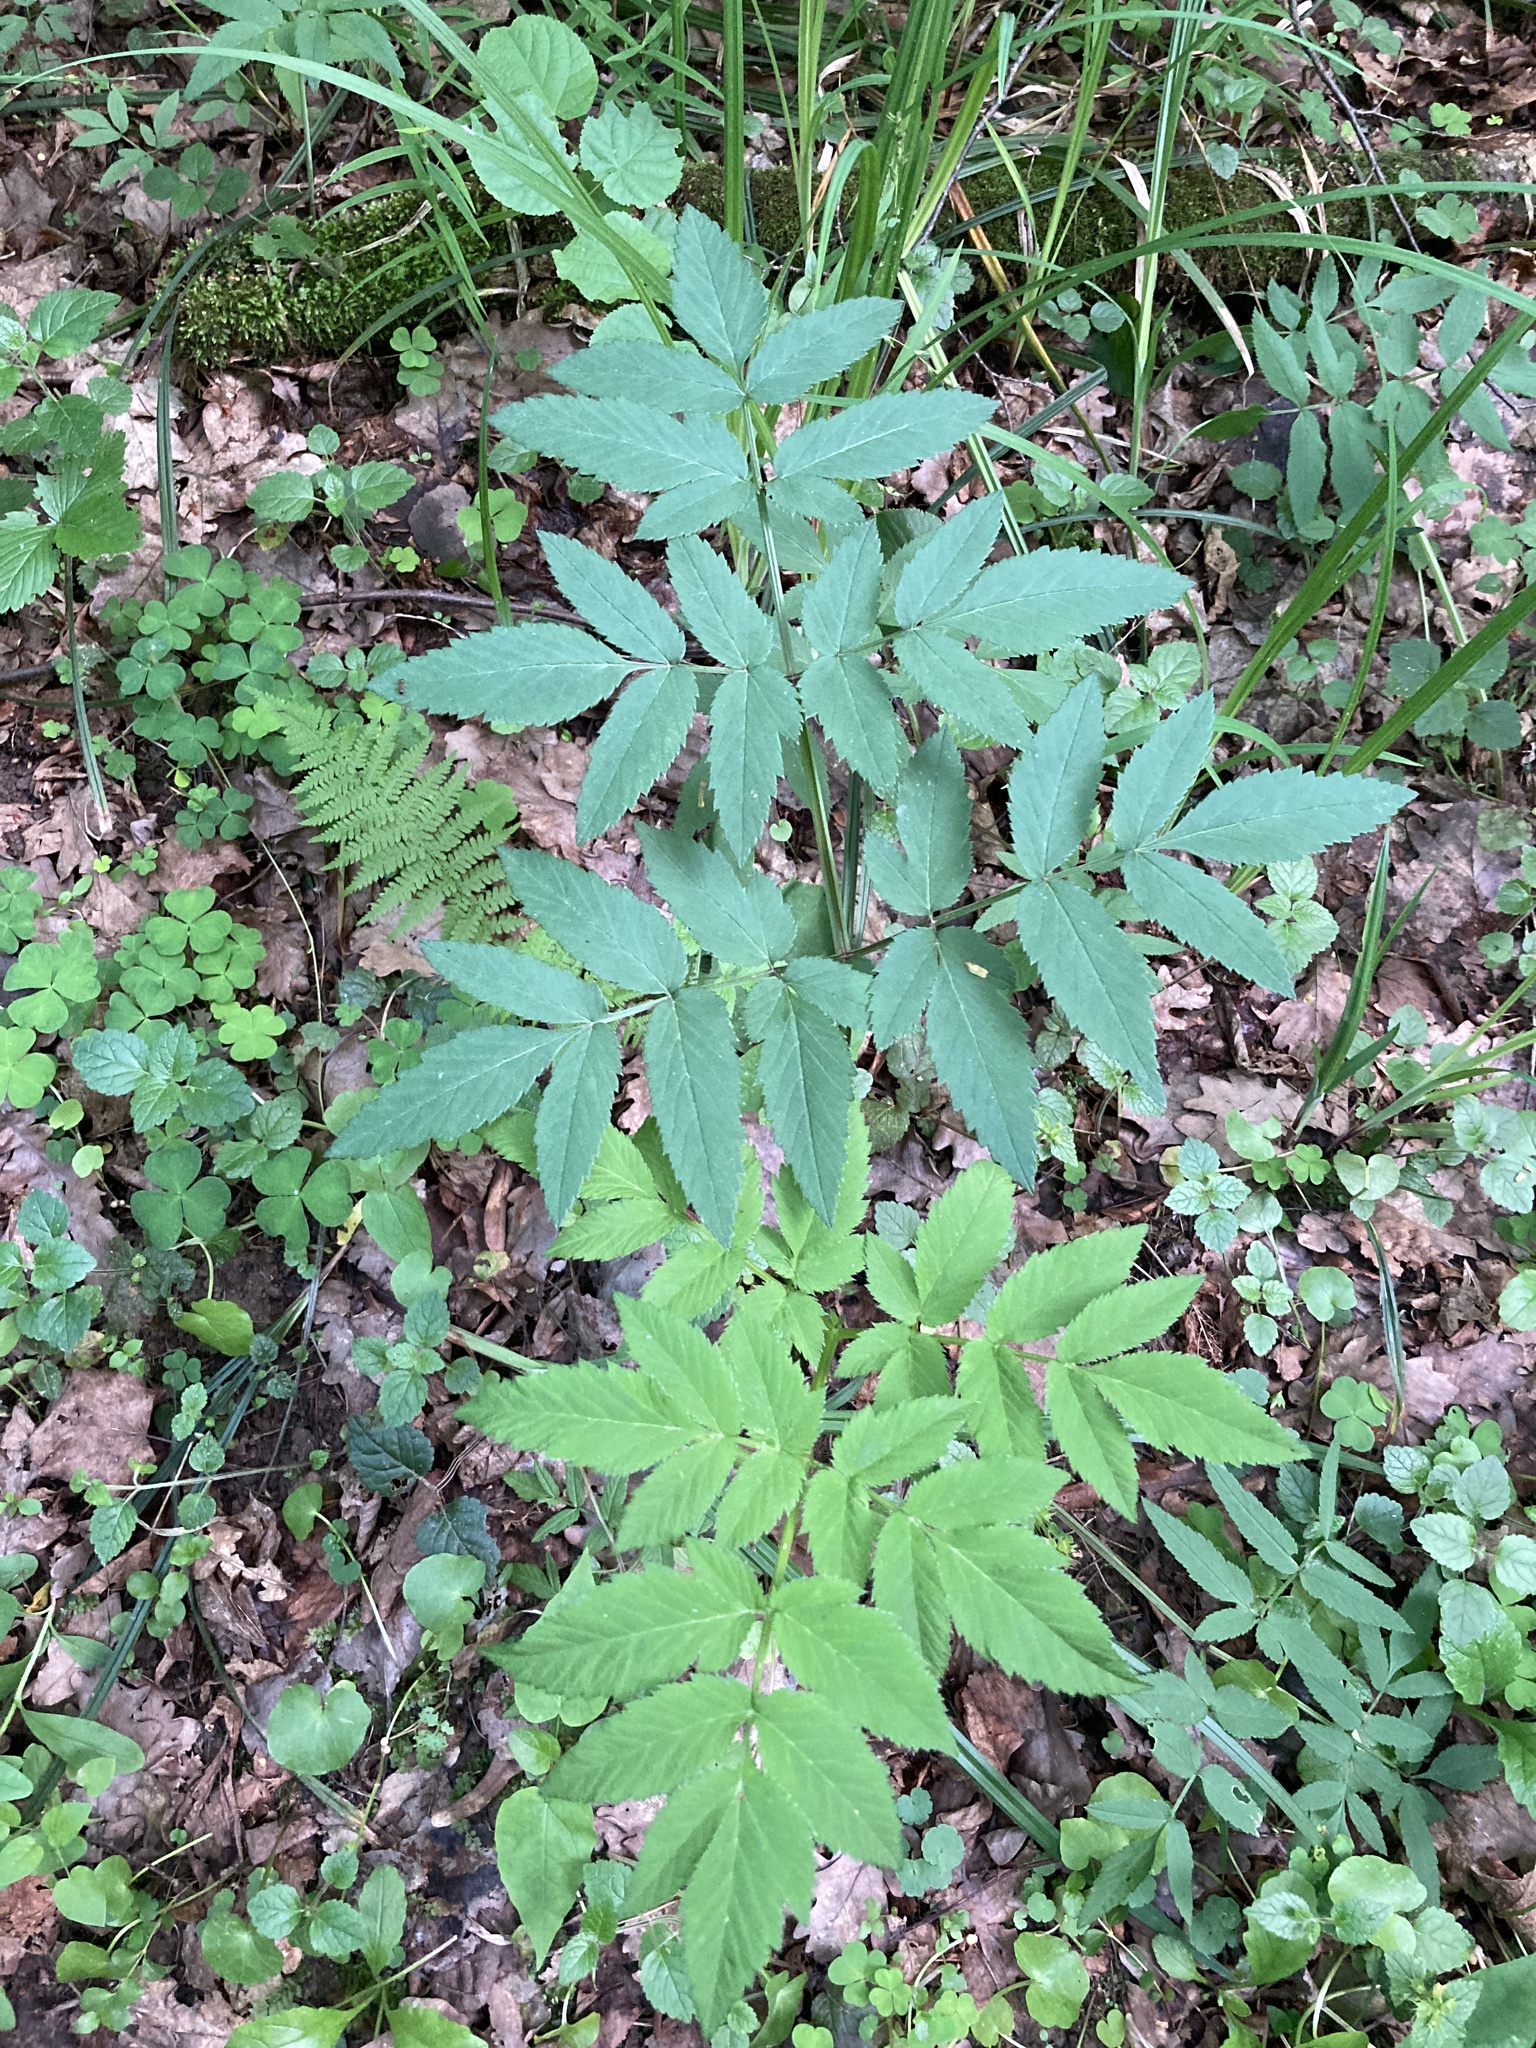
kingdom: Plantae
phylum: Tracheophyta
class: Magnoliopsida
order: Apiales
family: Apiaceae
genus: Angelica
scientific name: Angelica sylvestris
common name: Wild angelica
